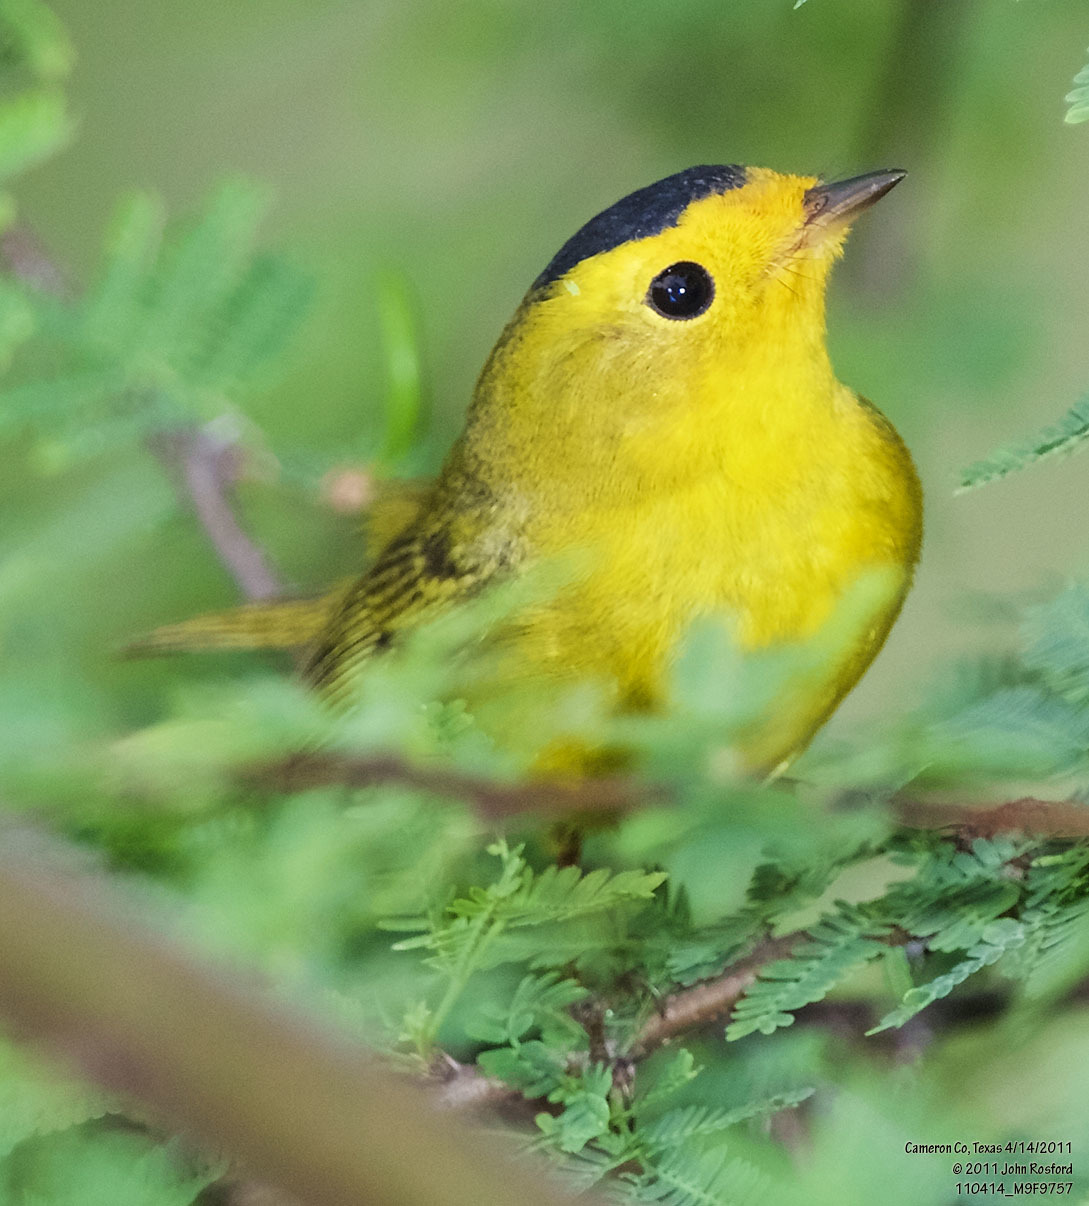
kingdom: Animalia
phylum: Chordata
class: Aves
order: Passeriformes
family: Parulidae
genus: Cardellina
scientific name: Cardellina pusilla
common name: Wilson's warbler
